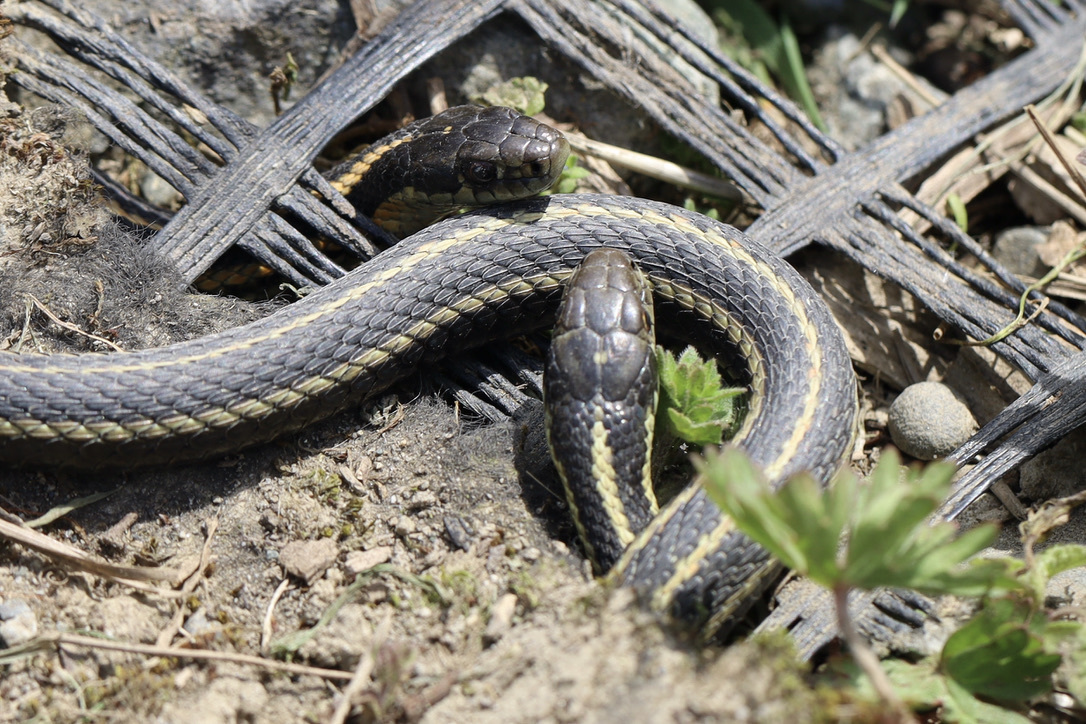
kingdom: Animalia
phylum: Chordata
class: Squamata
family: Colubridae
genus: Thamnophis
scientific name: Thamnophis ordinoides
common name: Northwestern garter snake
